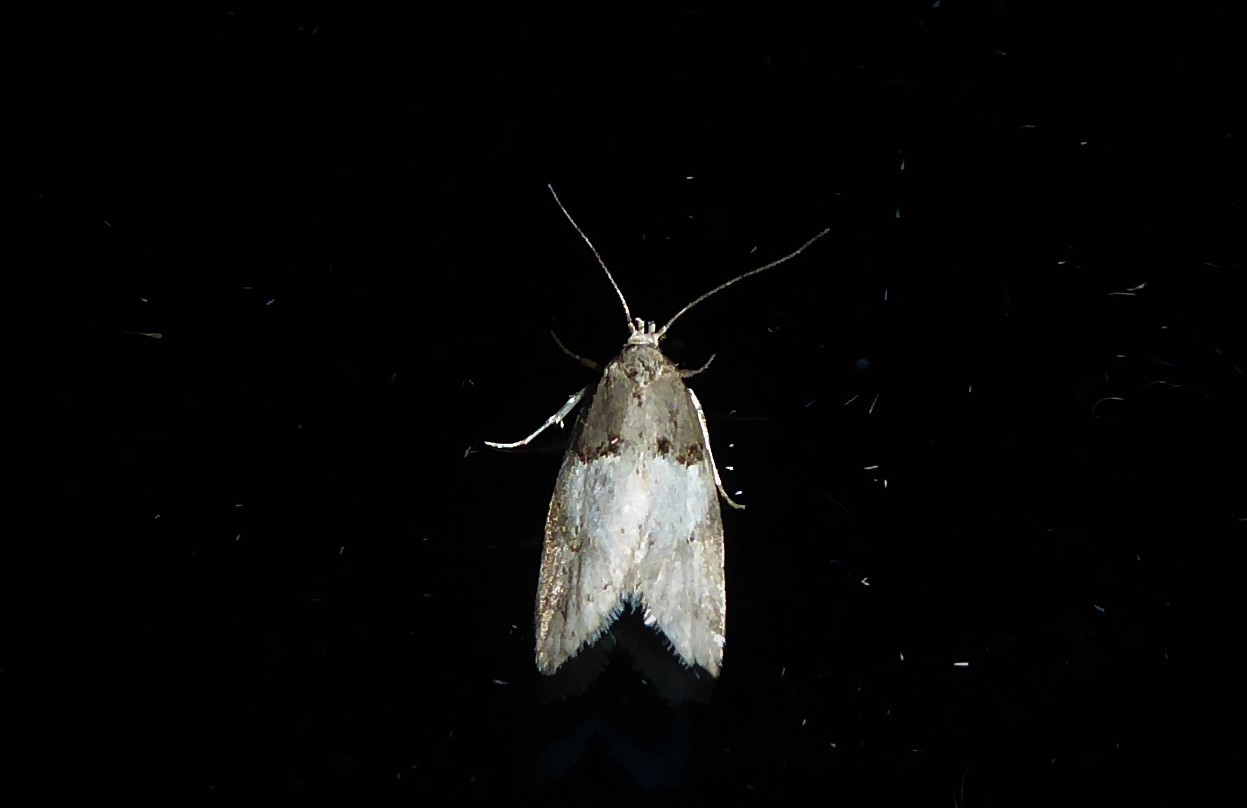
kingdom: Animalia
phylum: Arthropoda
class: Insecta
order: Lepidoptera
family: Oecophoridae
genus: Trachypepla
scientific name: Trachypepla contritella
